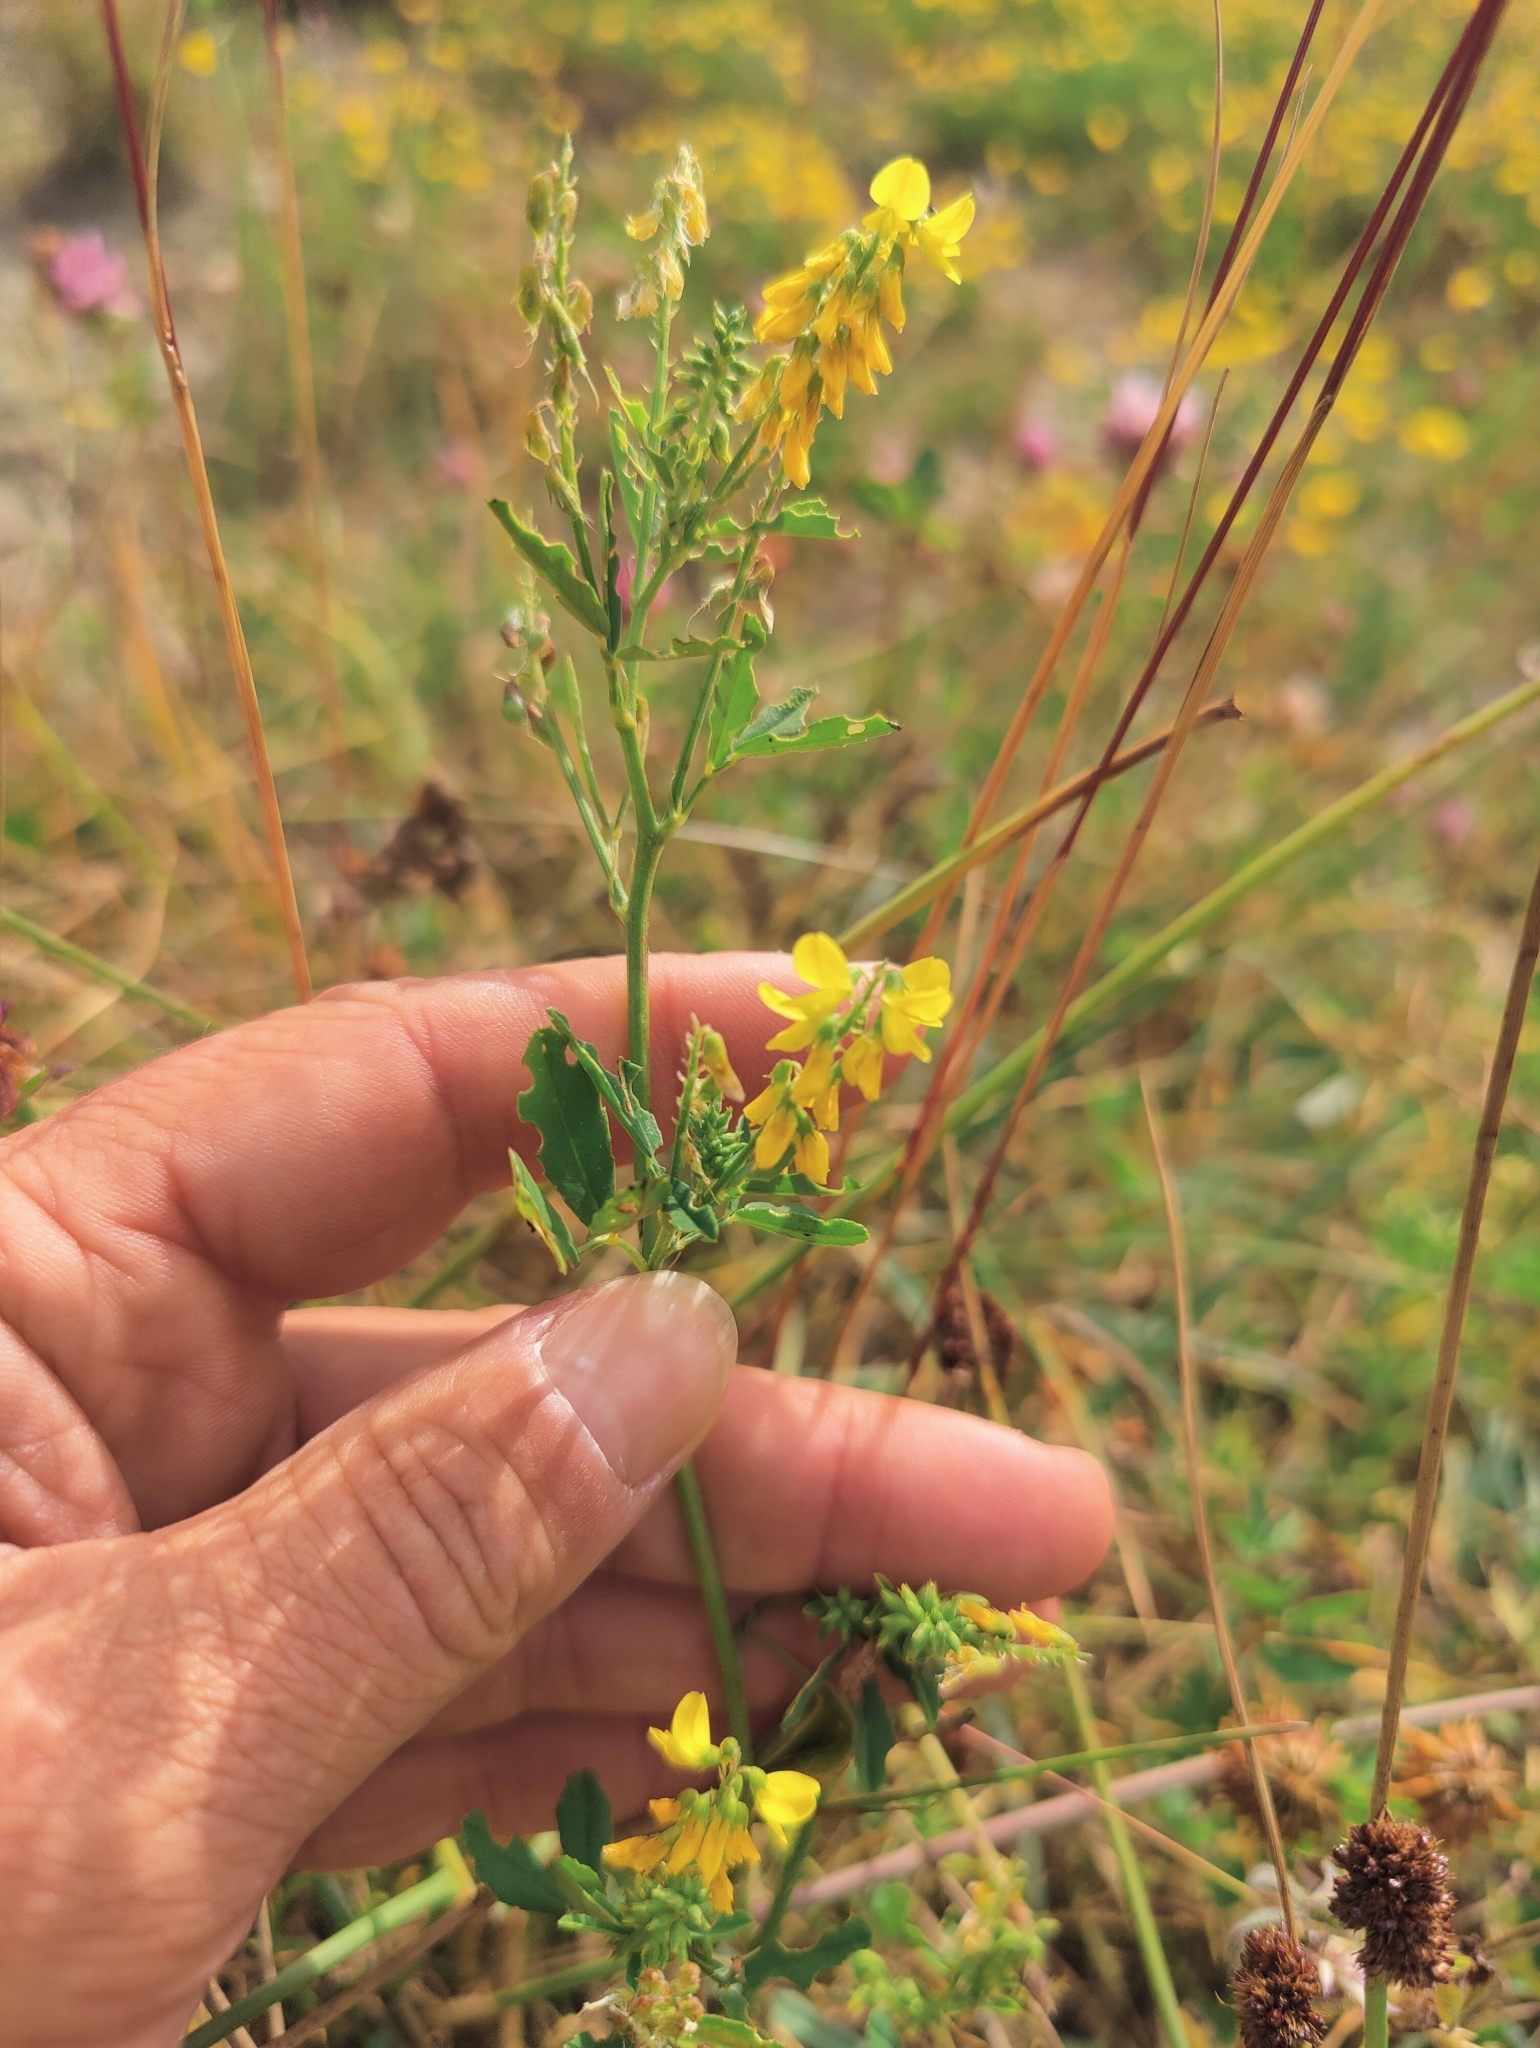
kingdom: Plantae
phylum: Tracheophyta
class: Magnoliopsida
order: Fabales
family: Fabaceae
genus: Melilotus
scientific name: Melilotus officinalis
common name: Sweetclover
